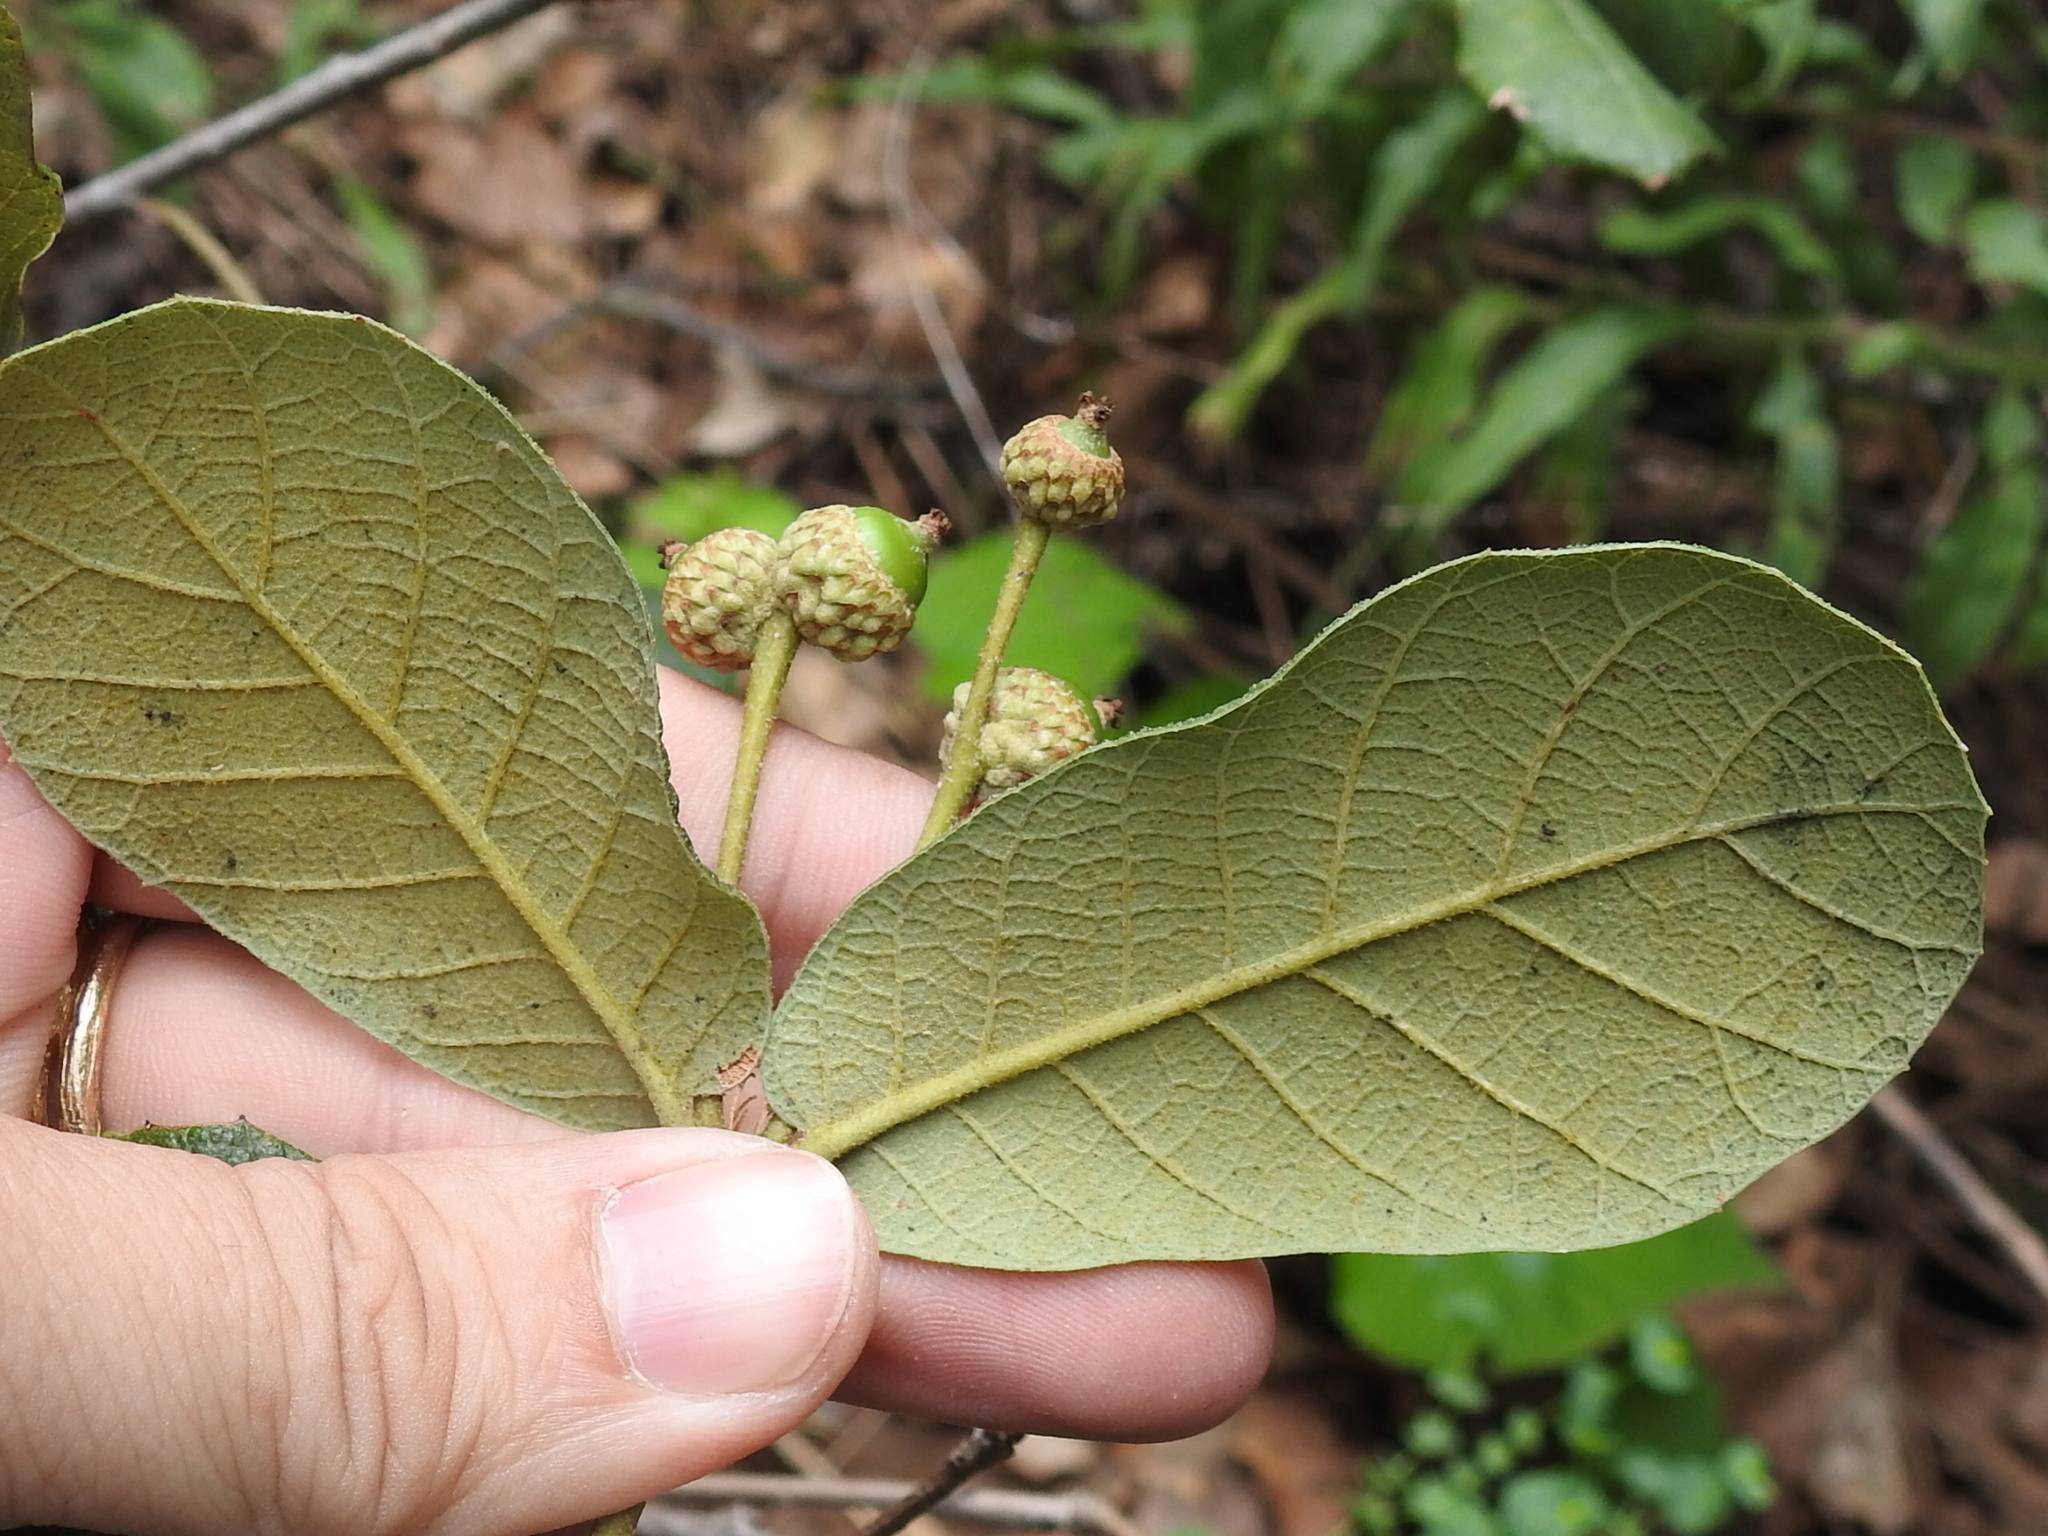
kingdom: Plantae
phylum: Tracheophyta
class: Magnoliopsida
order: Fagales
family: Fagaceae
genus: Quercus
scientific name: Quercus rugosa
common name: Netleaf oak
